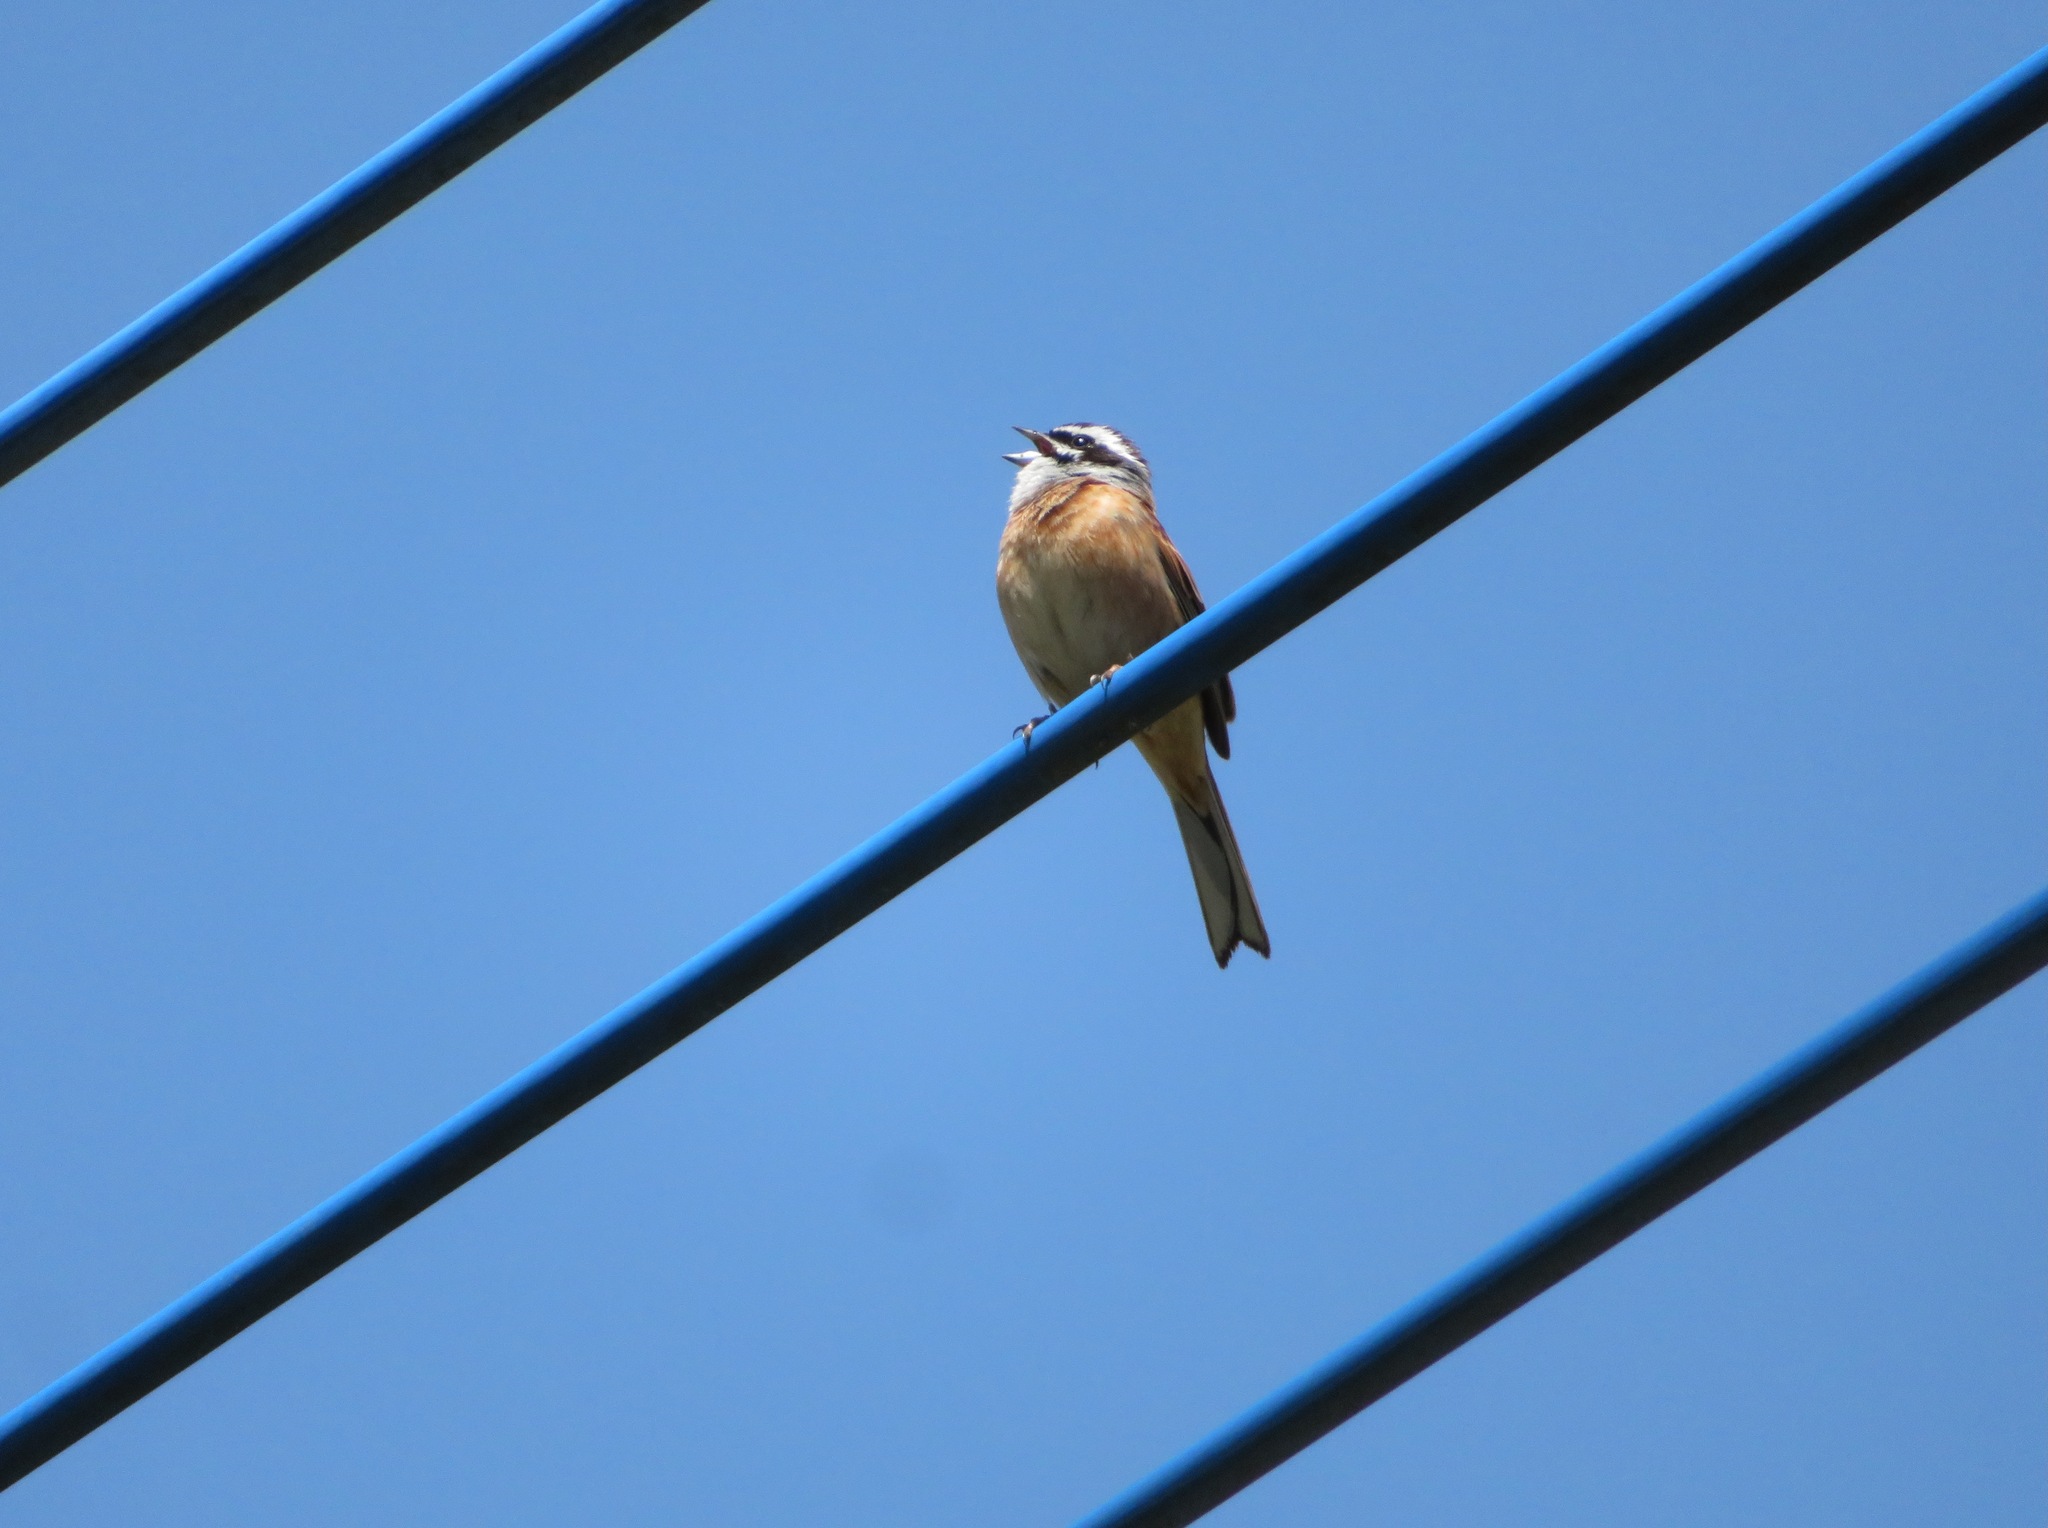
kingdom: Animalia
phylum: Chordata
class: Aves
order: Passeriformes
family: Emberizidae
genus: Emberiza
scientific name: Emberiza cioides
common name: Meadow bunting
